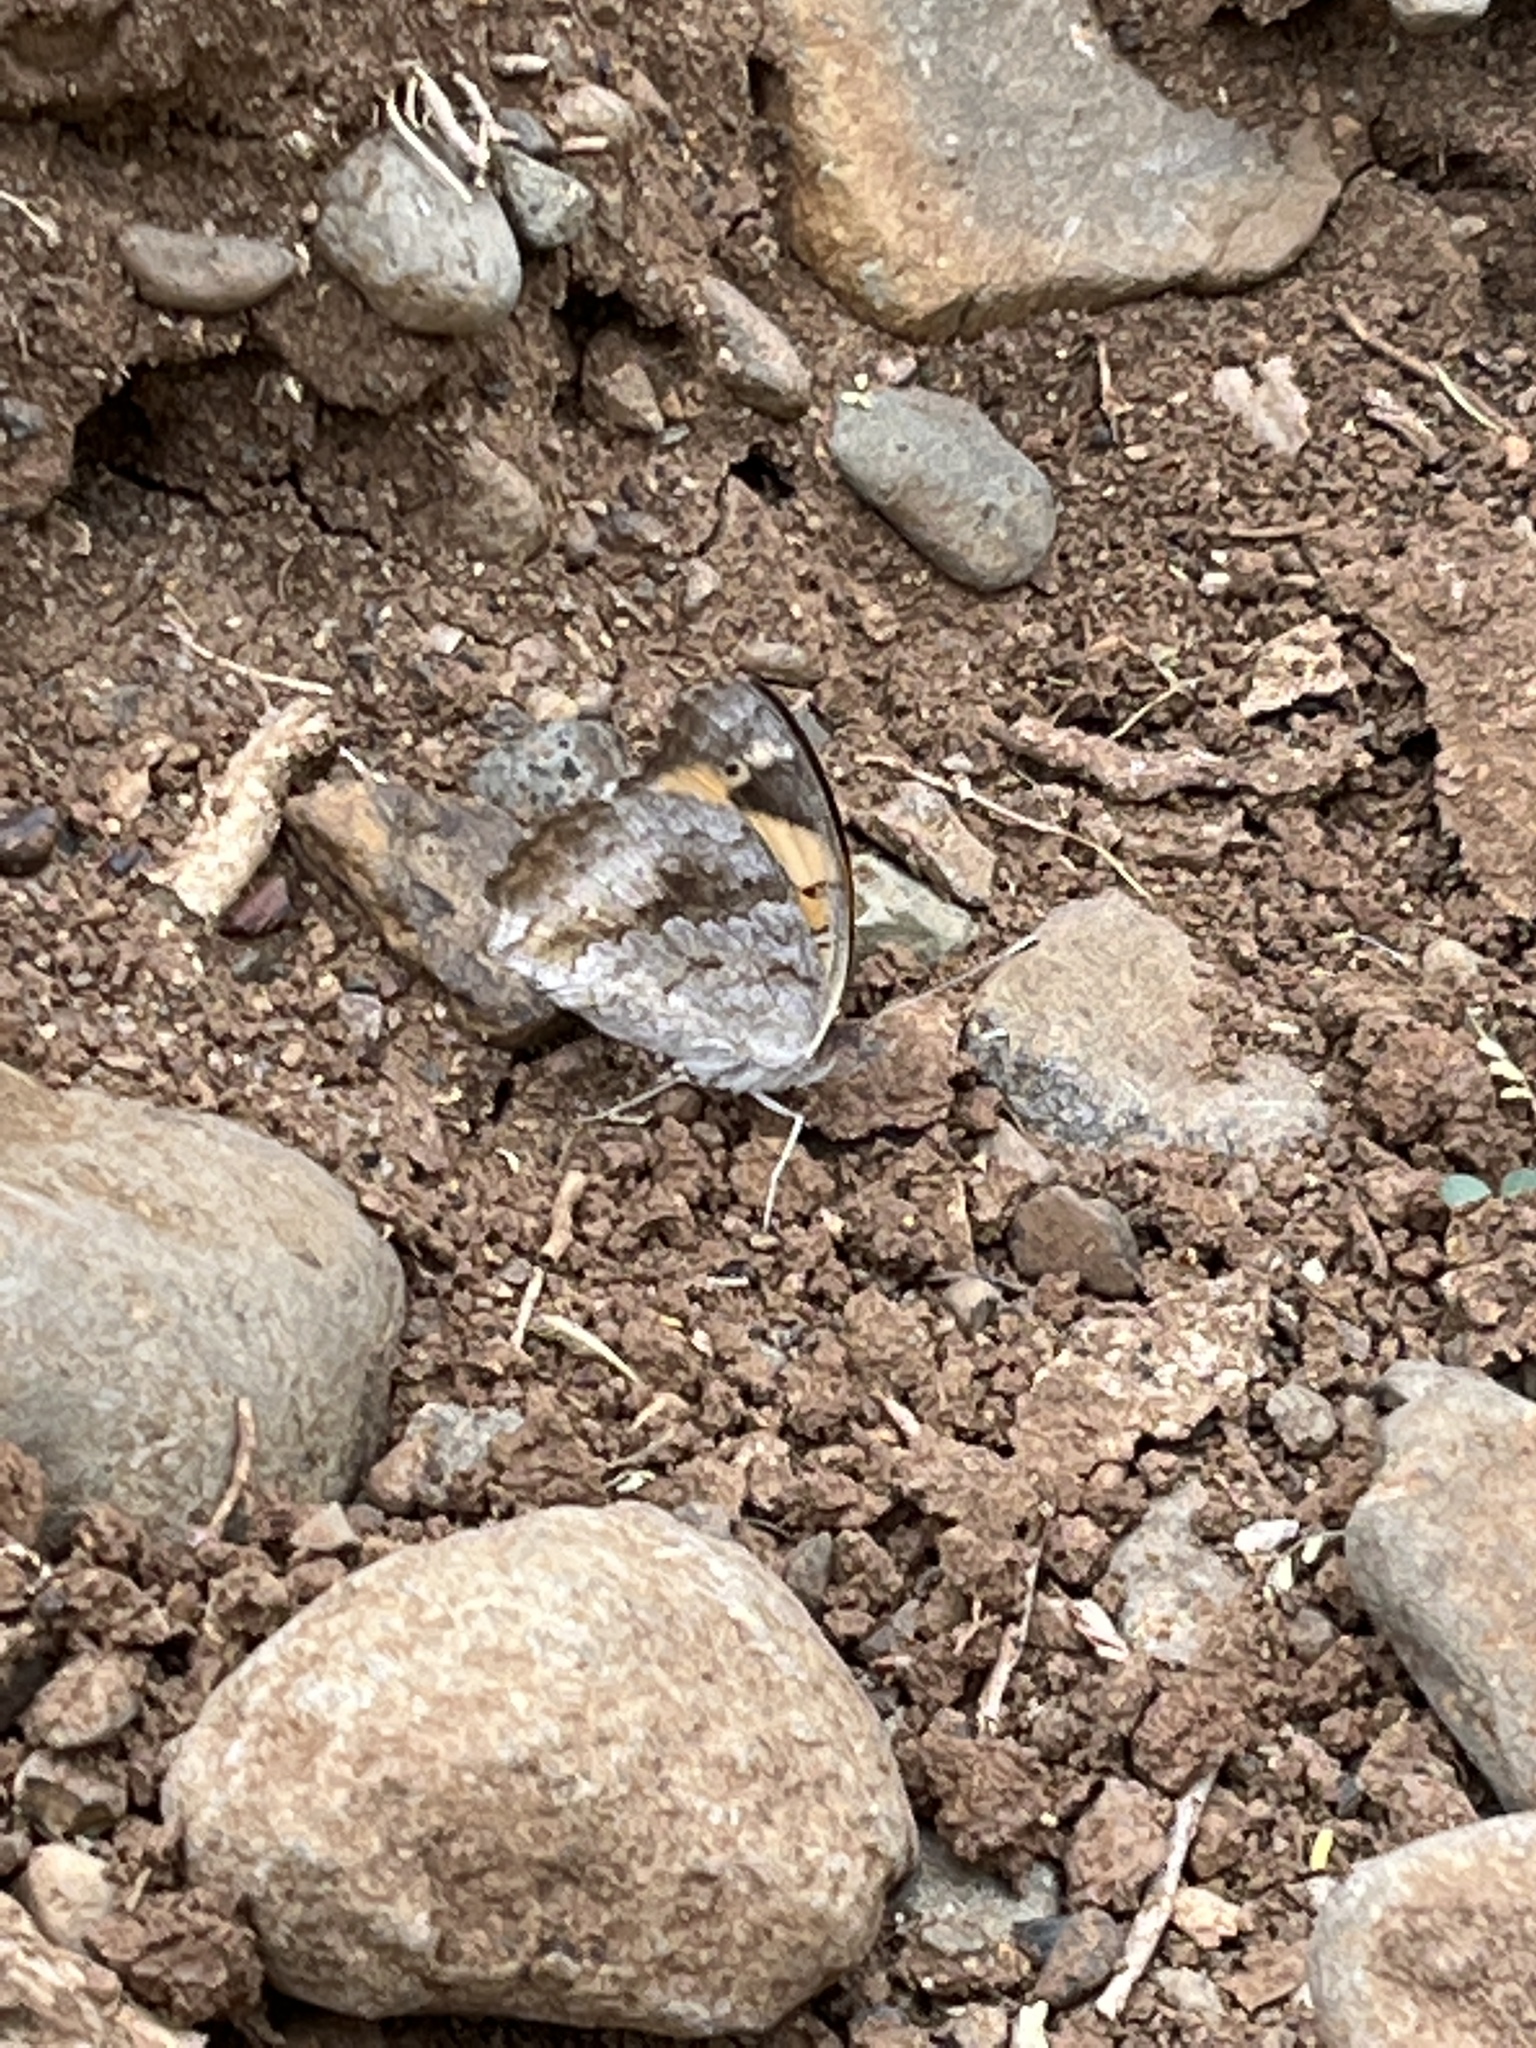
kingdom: Animalia
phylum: Arthropoda
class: Insecta
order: Lepidoptera
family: Nymphalidae
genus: Junonia
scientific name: Junonia hierta
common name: Yellow pansy
